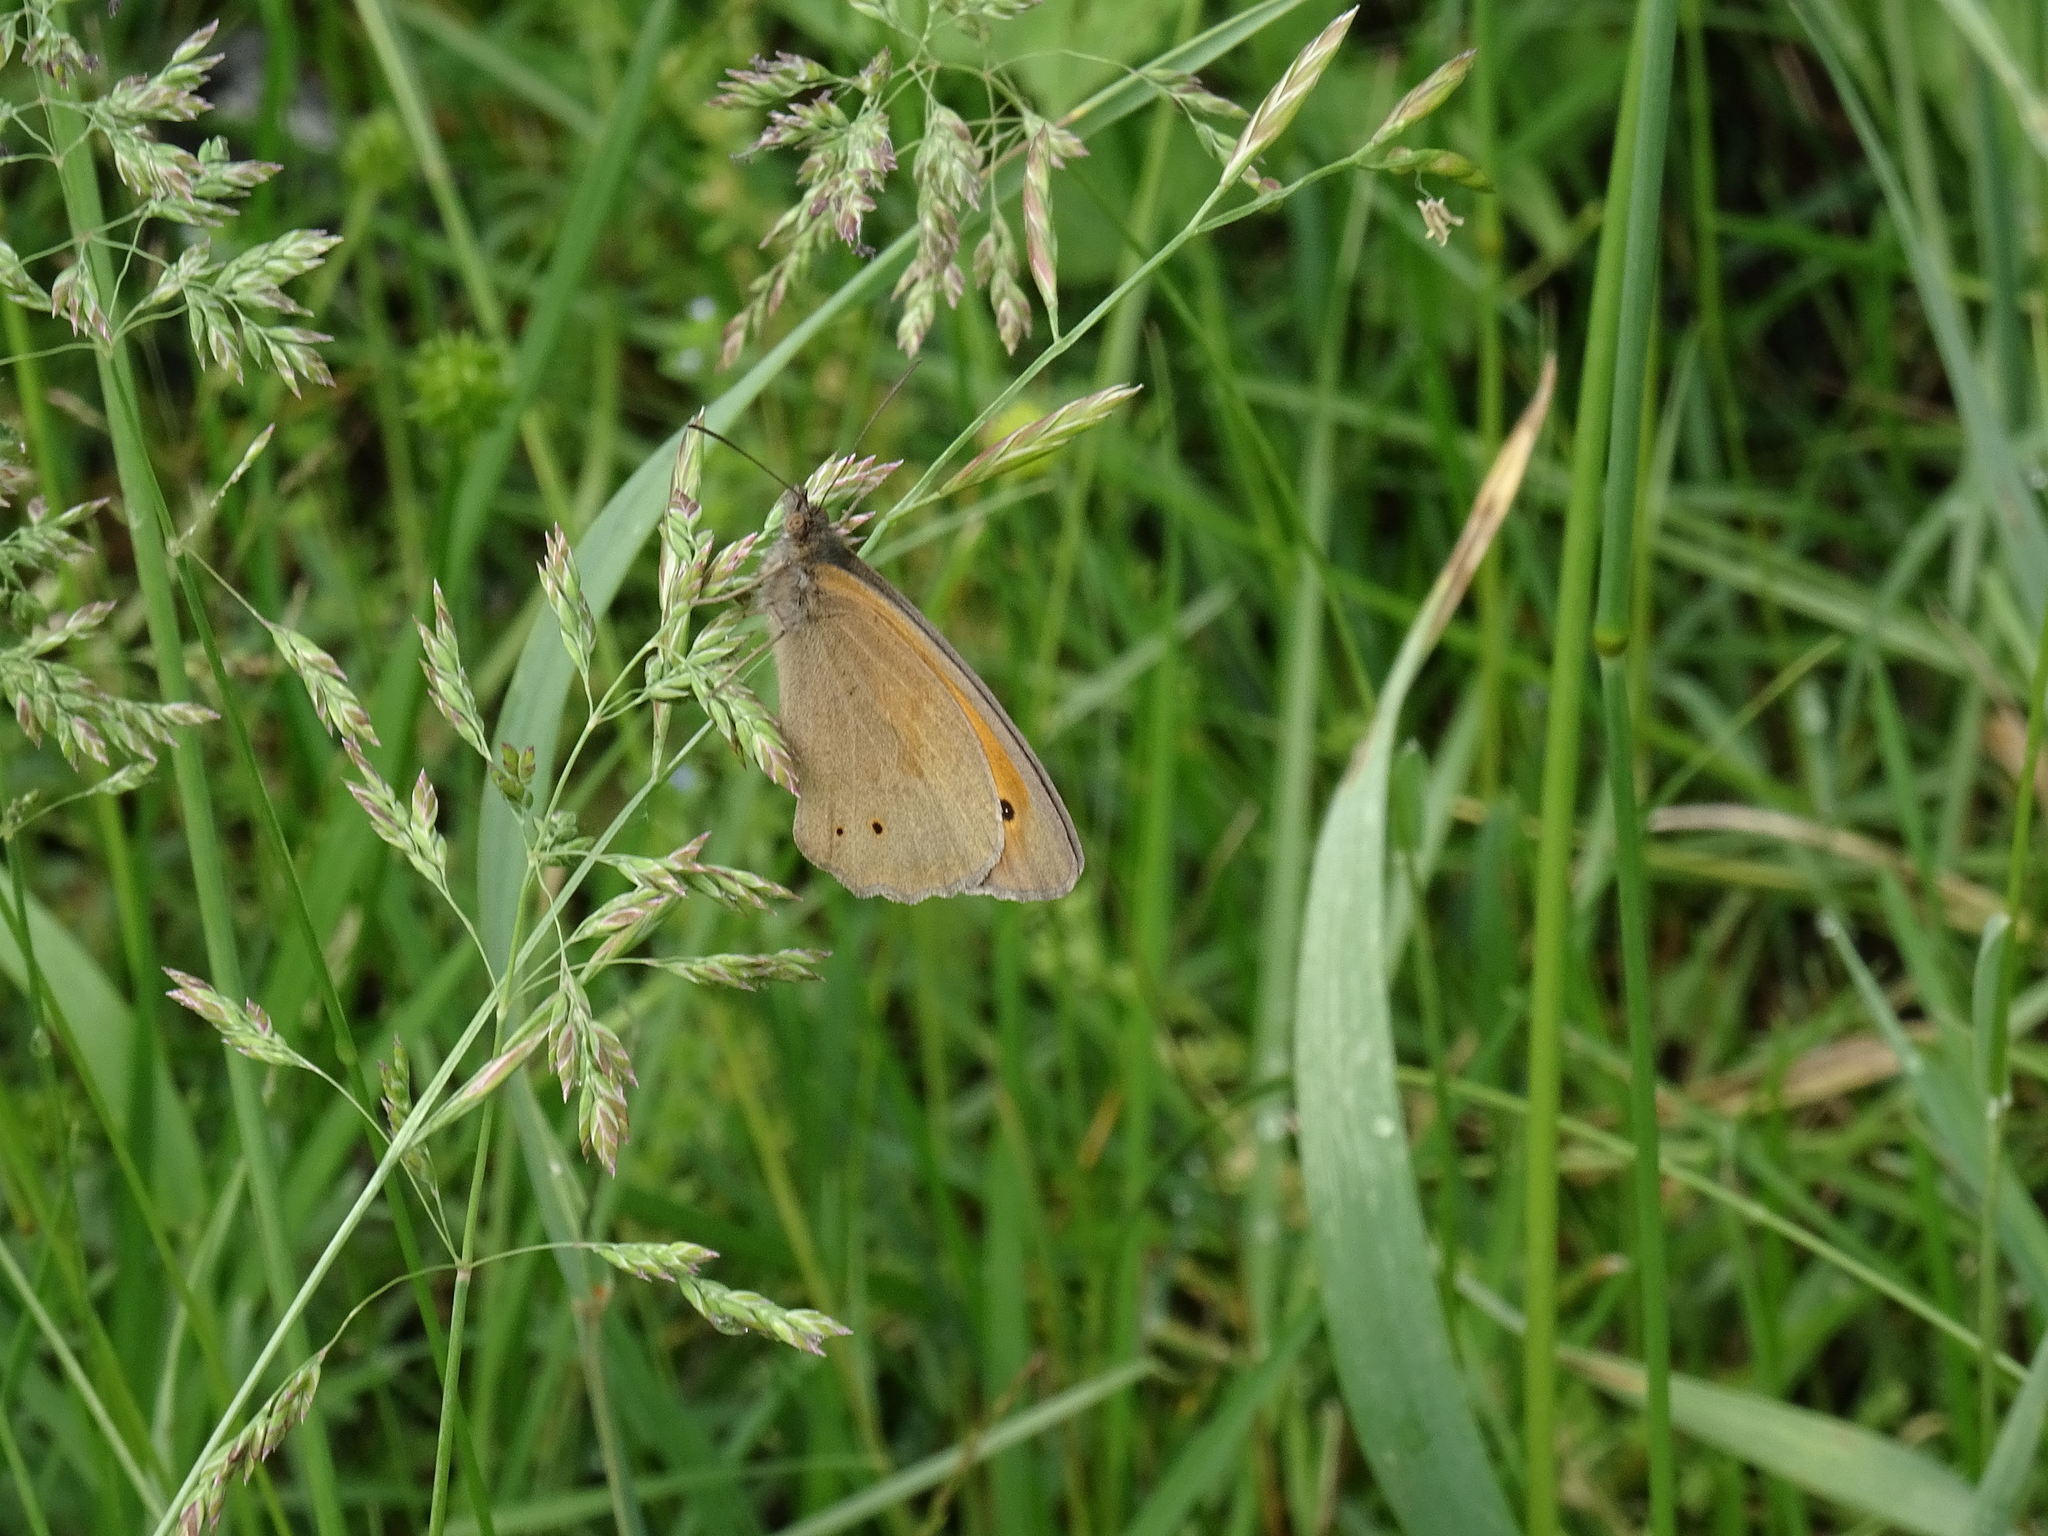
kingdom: Animalia
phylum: Arthropoda
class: Insecta
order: Lepidoptera
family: Nymphalidae
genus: Maniola
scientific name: Maniola jurtina
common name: Meadow brown
